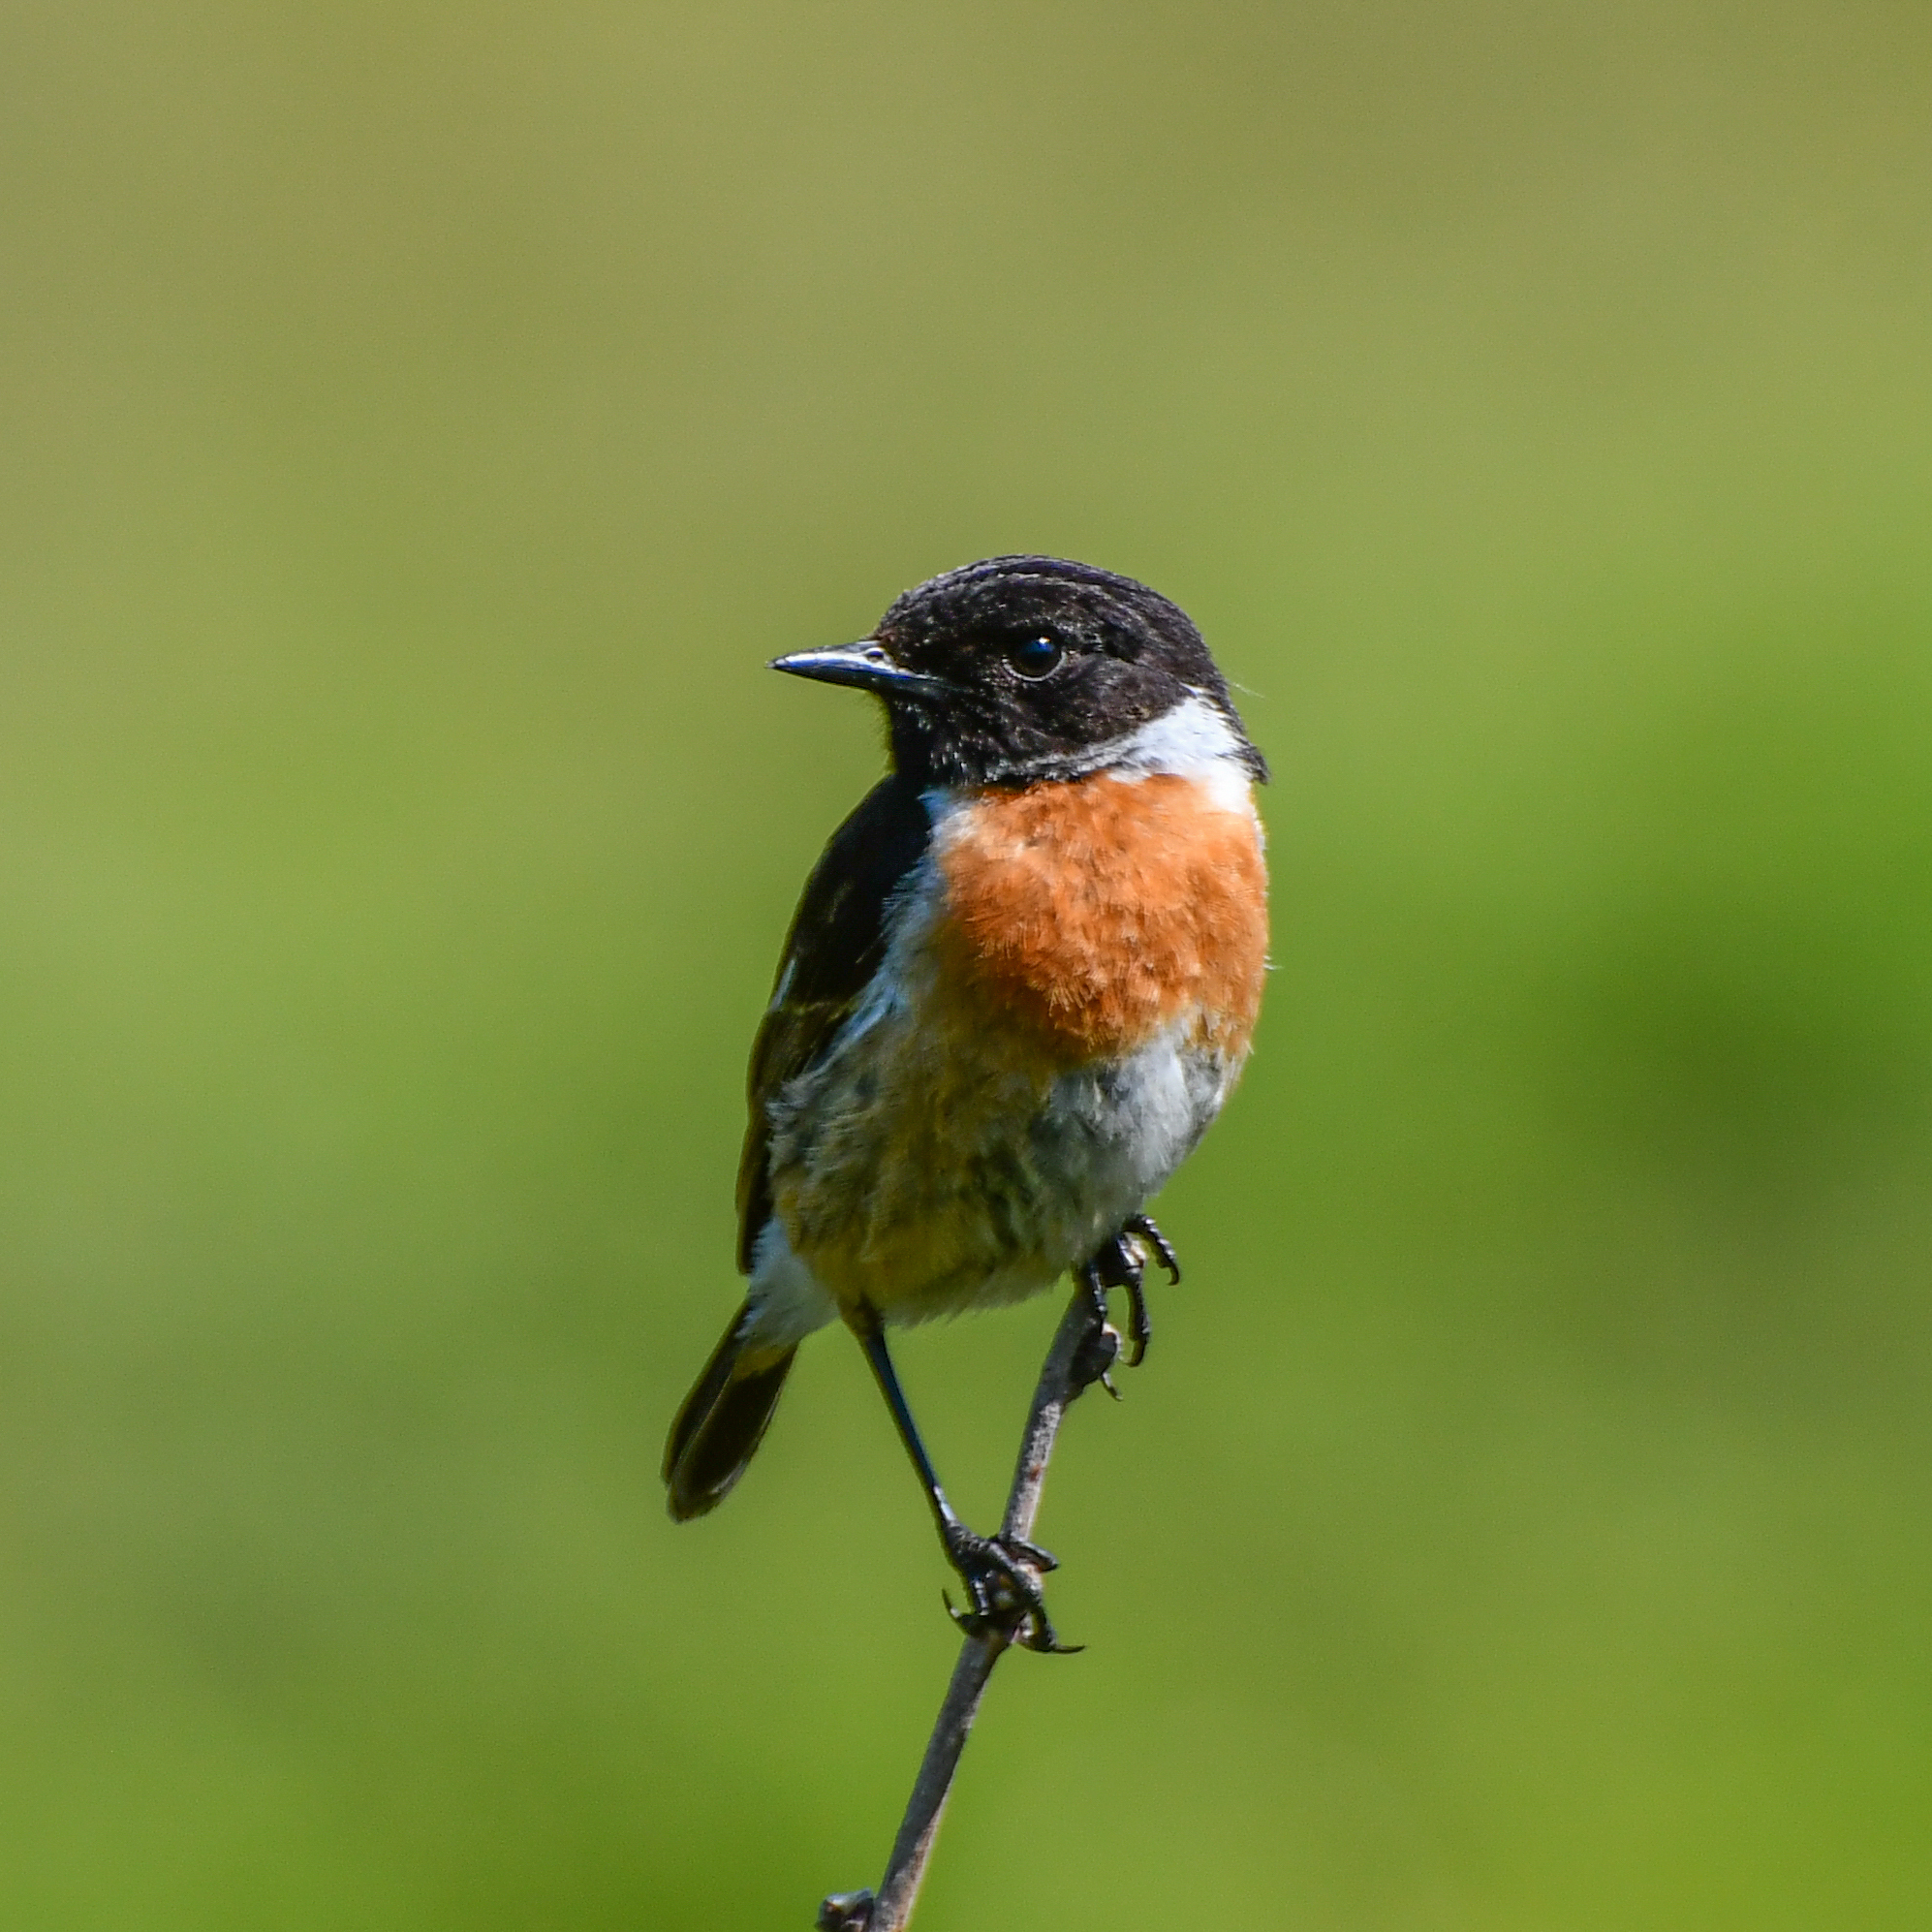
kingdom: Animalia
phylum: Chordata
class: Aves
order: Passeriformes
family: Muscicapidae
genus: Saxicola
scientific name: Saxicola rubicola
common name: European stonechat
